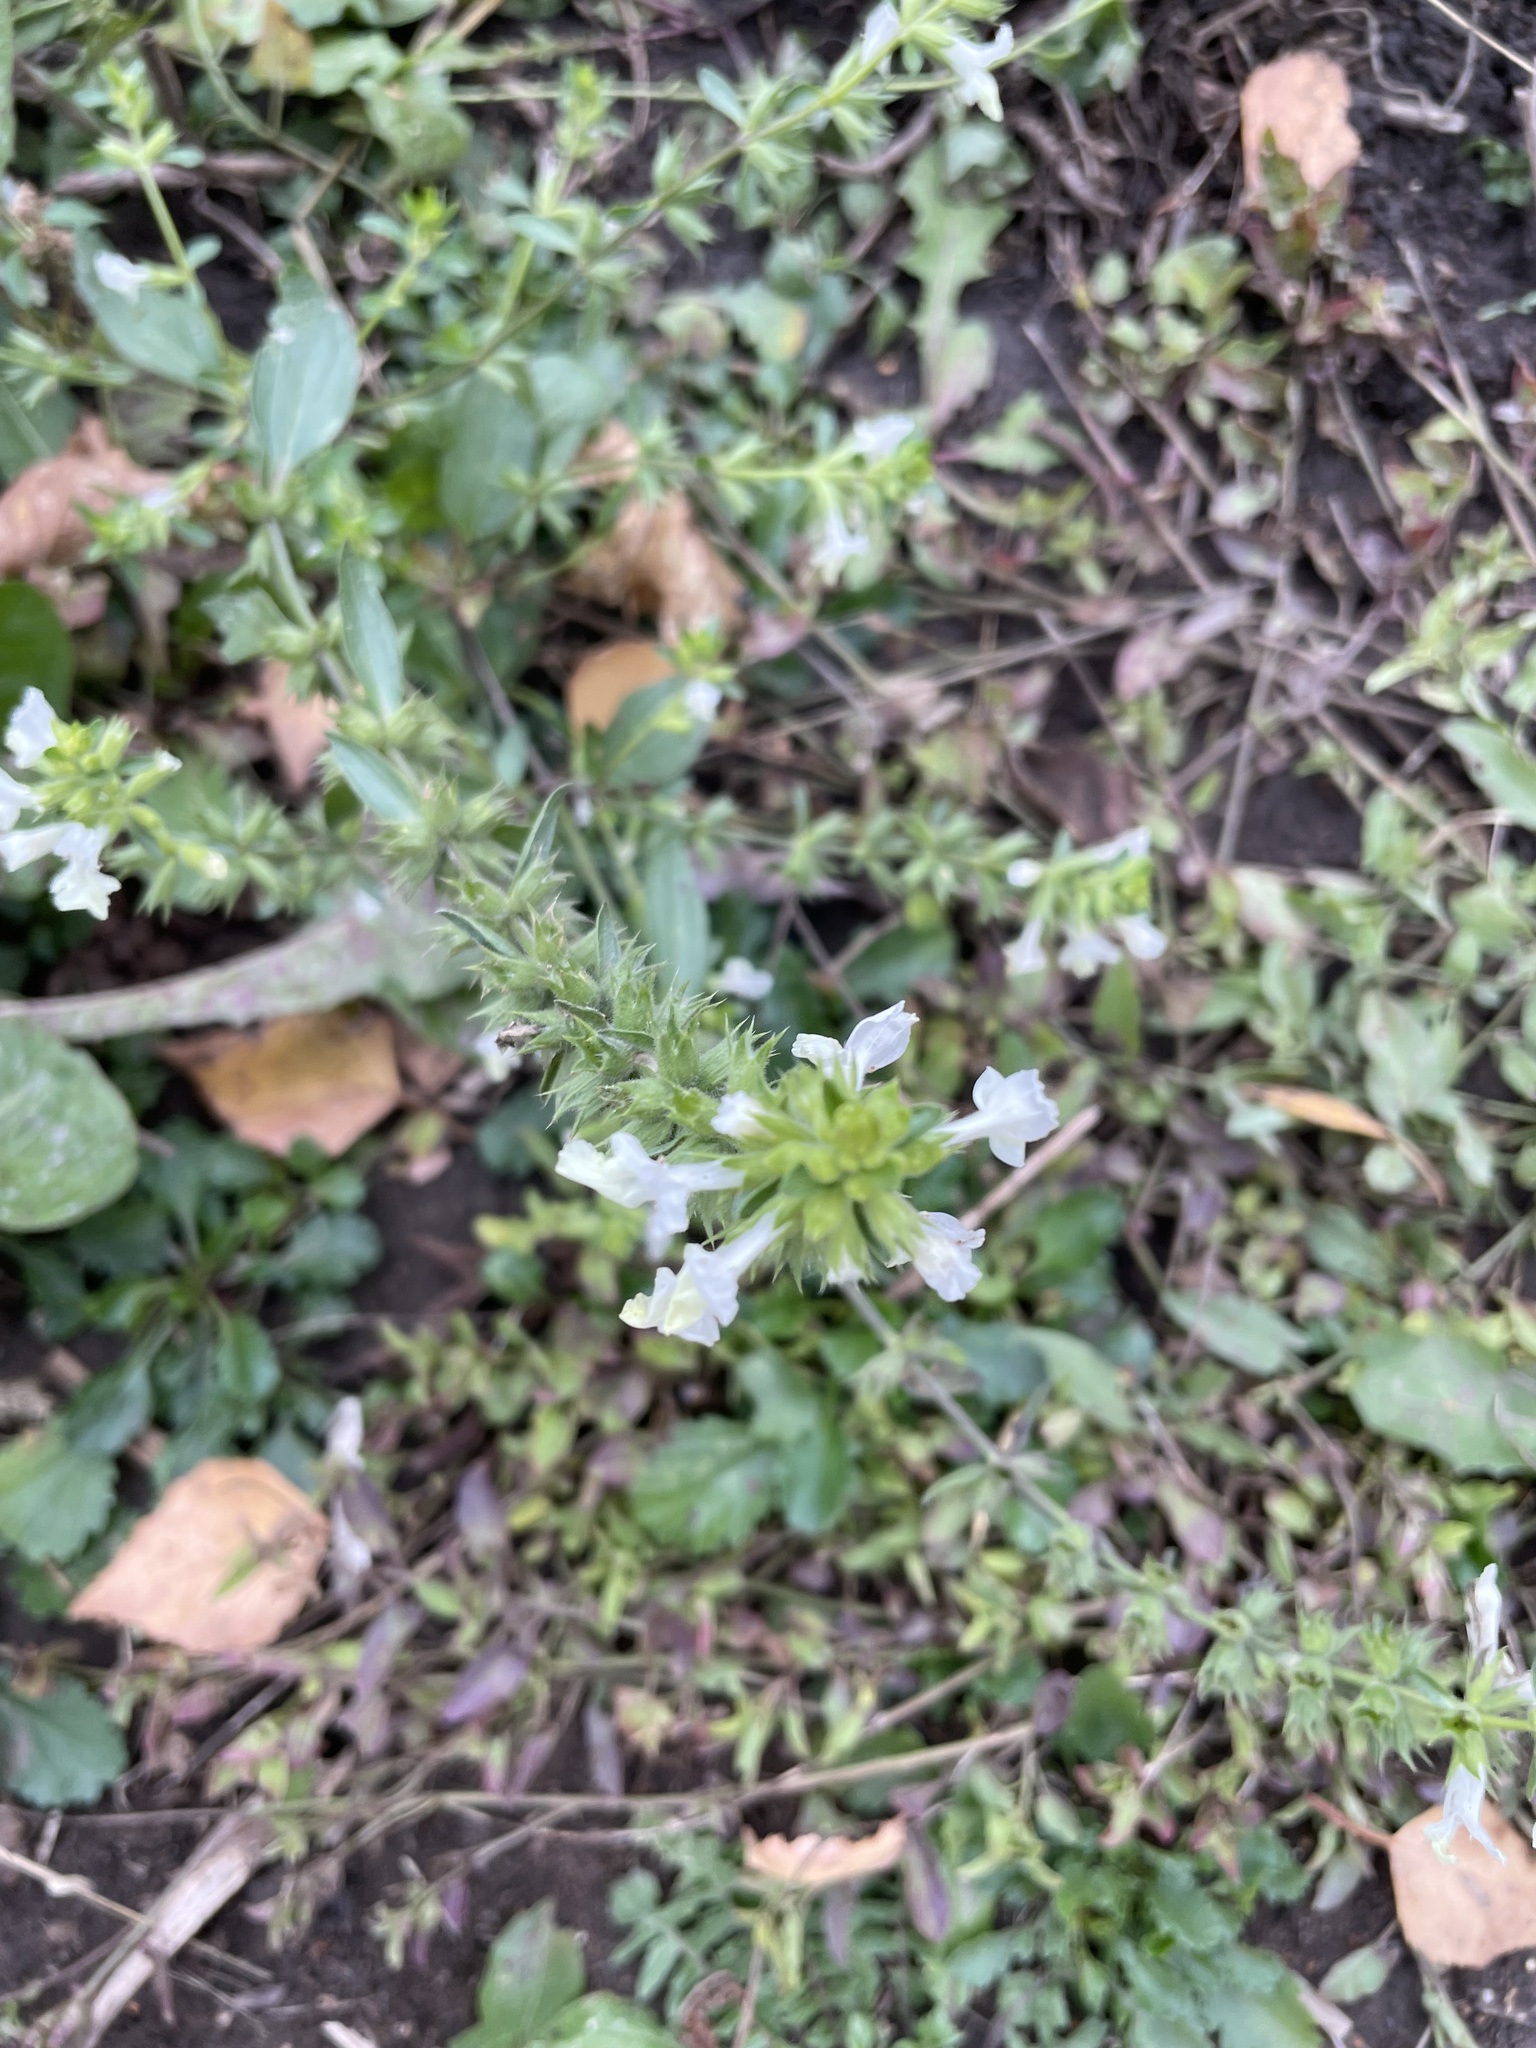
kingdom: Plantae
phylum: Tracheophyta
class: Magnoliopsida
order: Lamiales
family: Lamiaceae
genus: Stachys
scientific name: Stachys annua
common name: Annual yellow-woundwort
